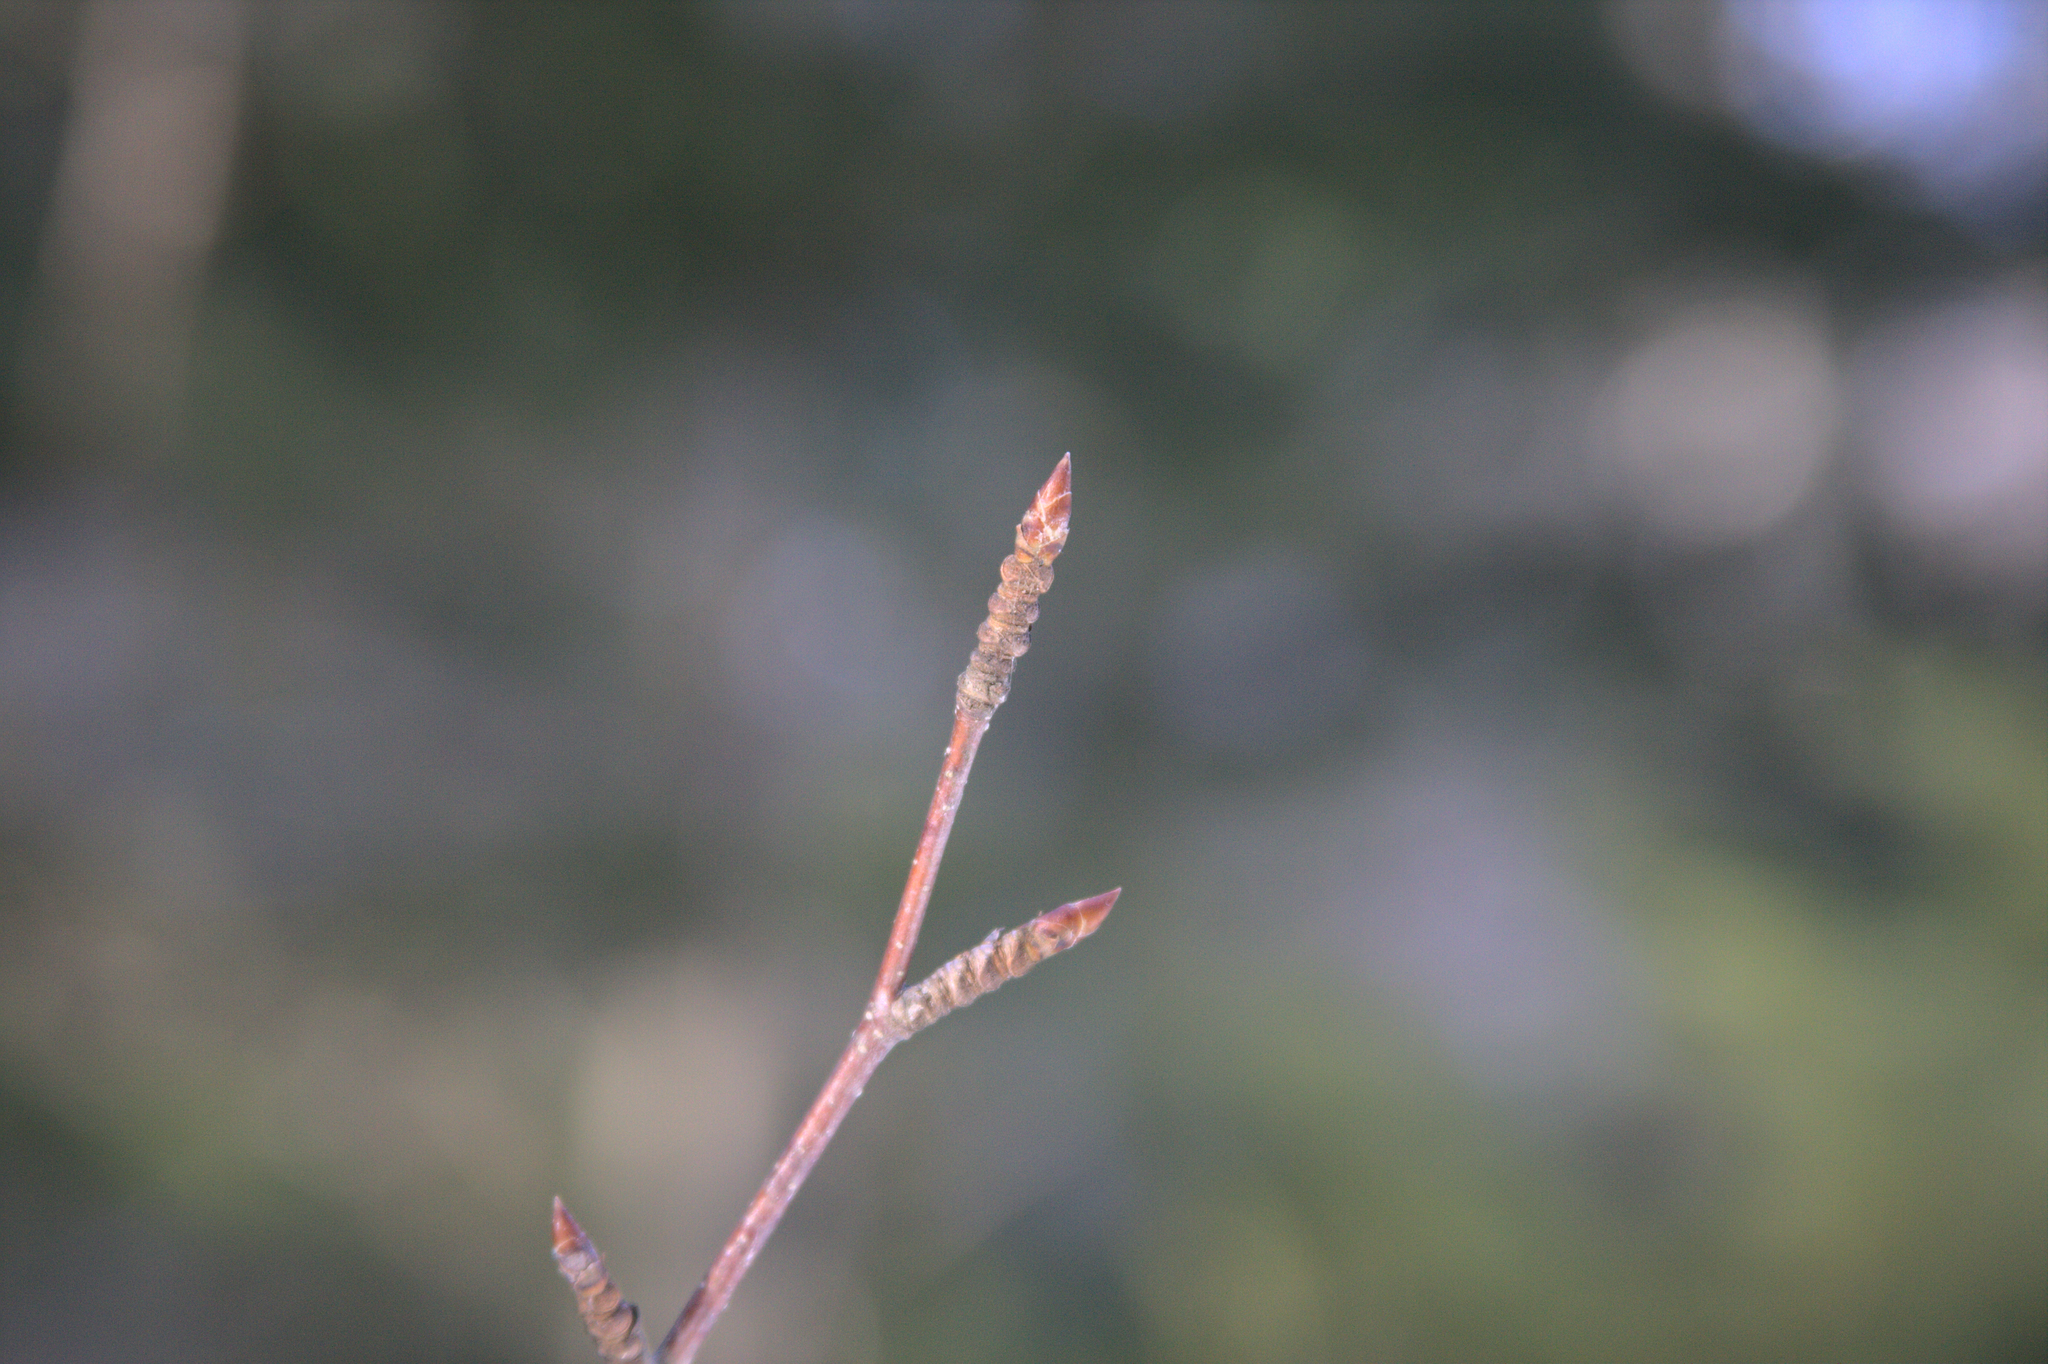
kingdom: Plantae
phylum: Tracheophyta
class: Magnoliopsida
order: Fagales
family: Betulaceae
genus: Betula
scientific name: Betula alleghaniensis
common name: Yellow birch
